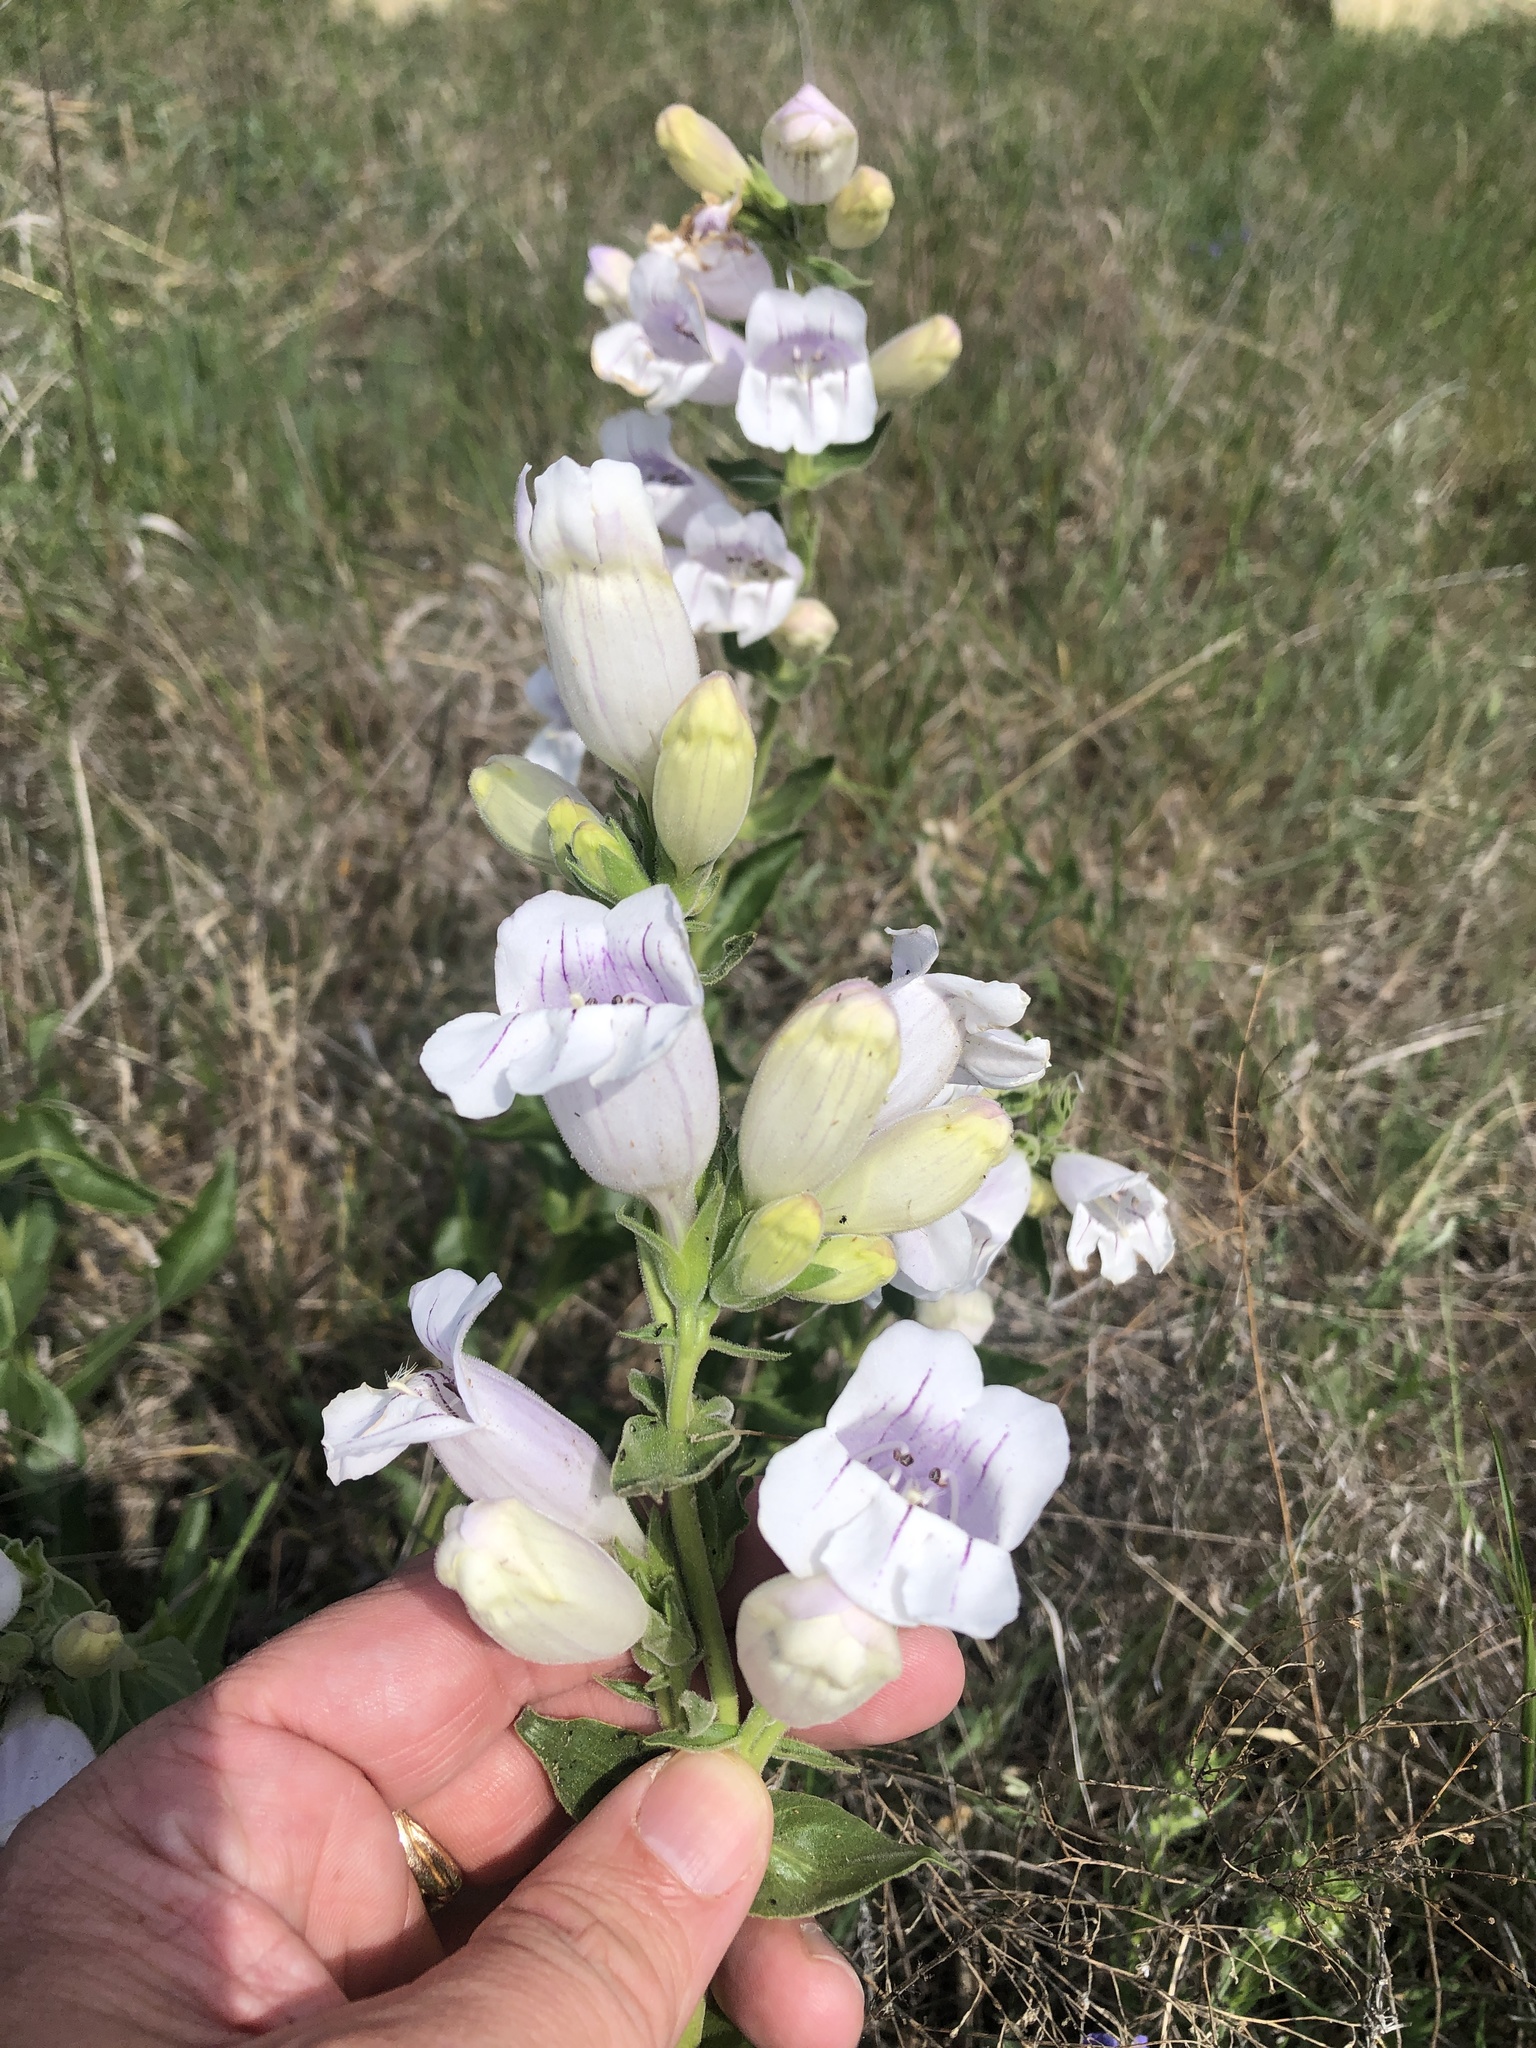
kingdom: Plantae
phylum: Tracheophyta
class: Magnoliopsida
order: Lamiales
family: Plantaginaceae
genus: Penstemon
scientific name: Penstemon cobaea
